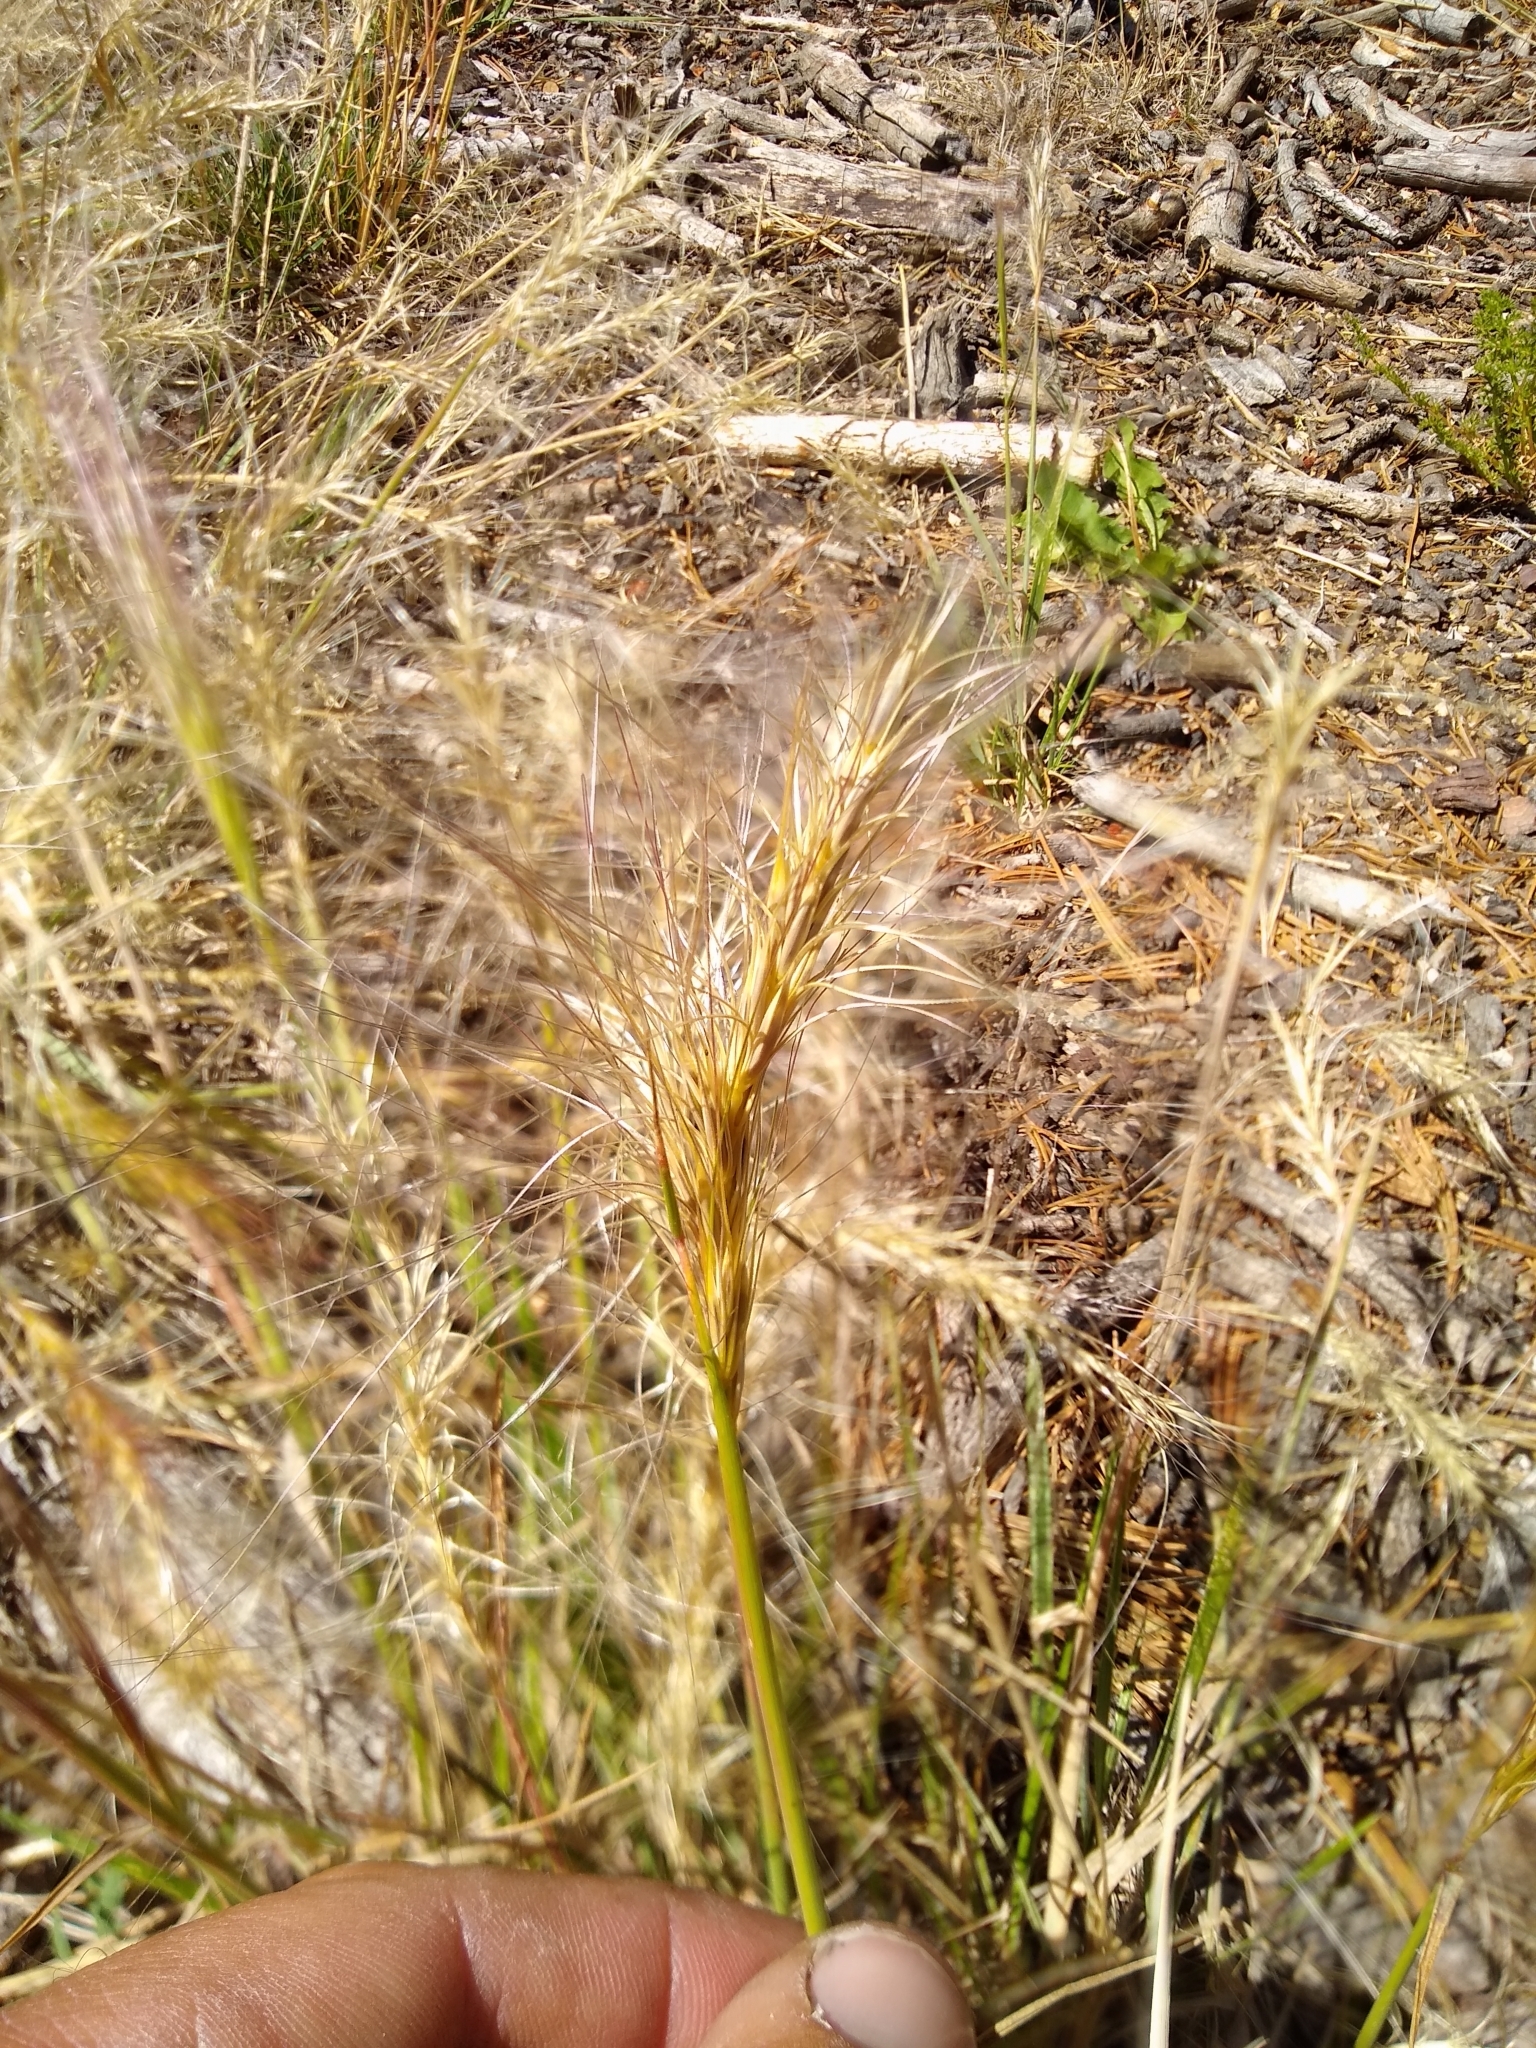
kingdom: Plantae
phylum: Tracheophyta
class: Liliopsida
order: Poales
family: Poaceae
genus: Hordeum
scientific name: Hordeum jubatum
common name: Foxtail barley
